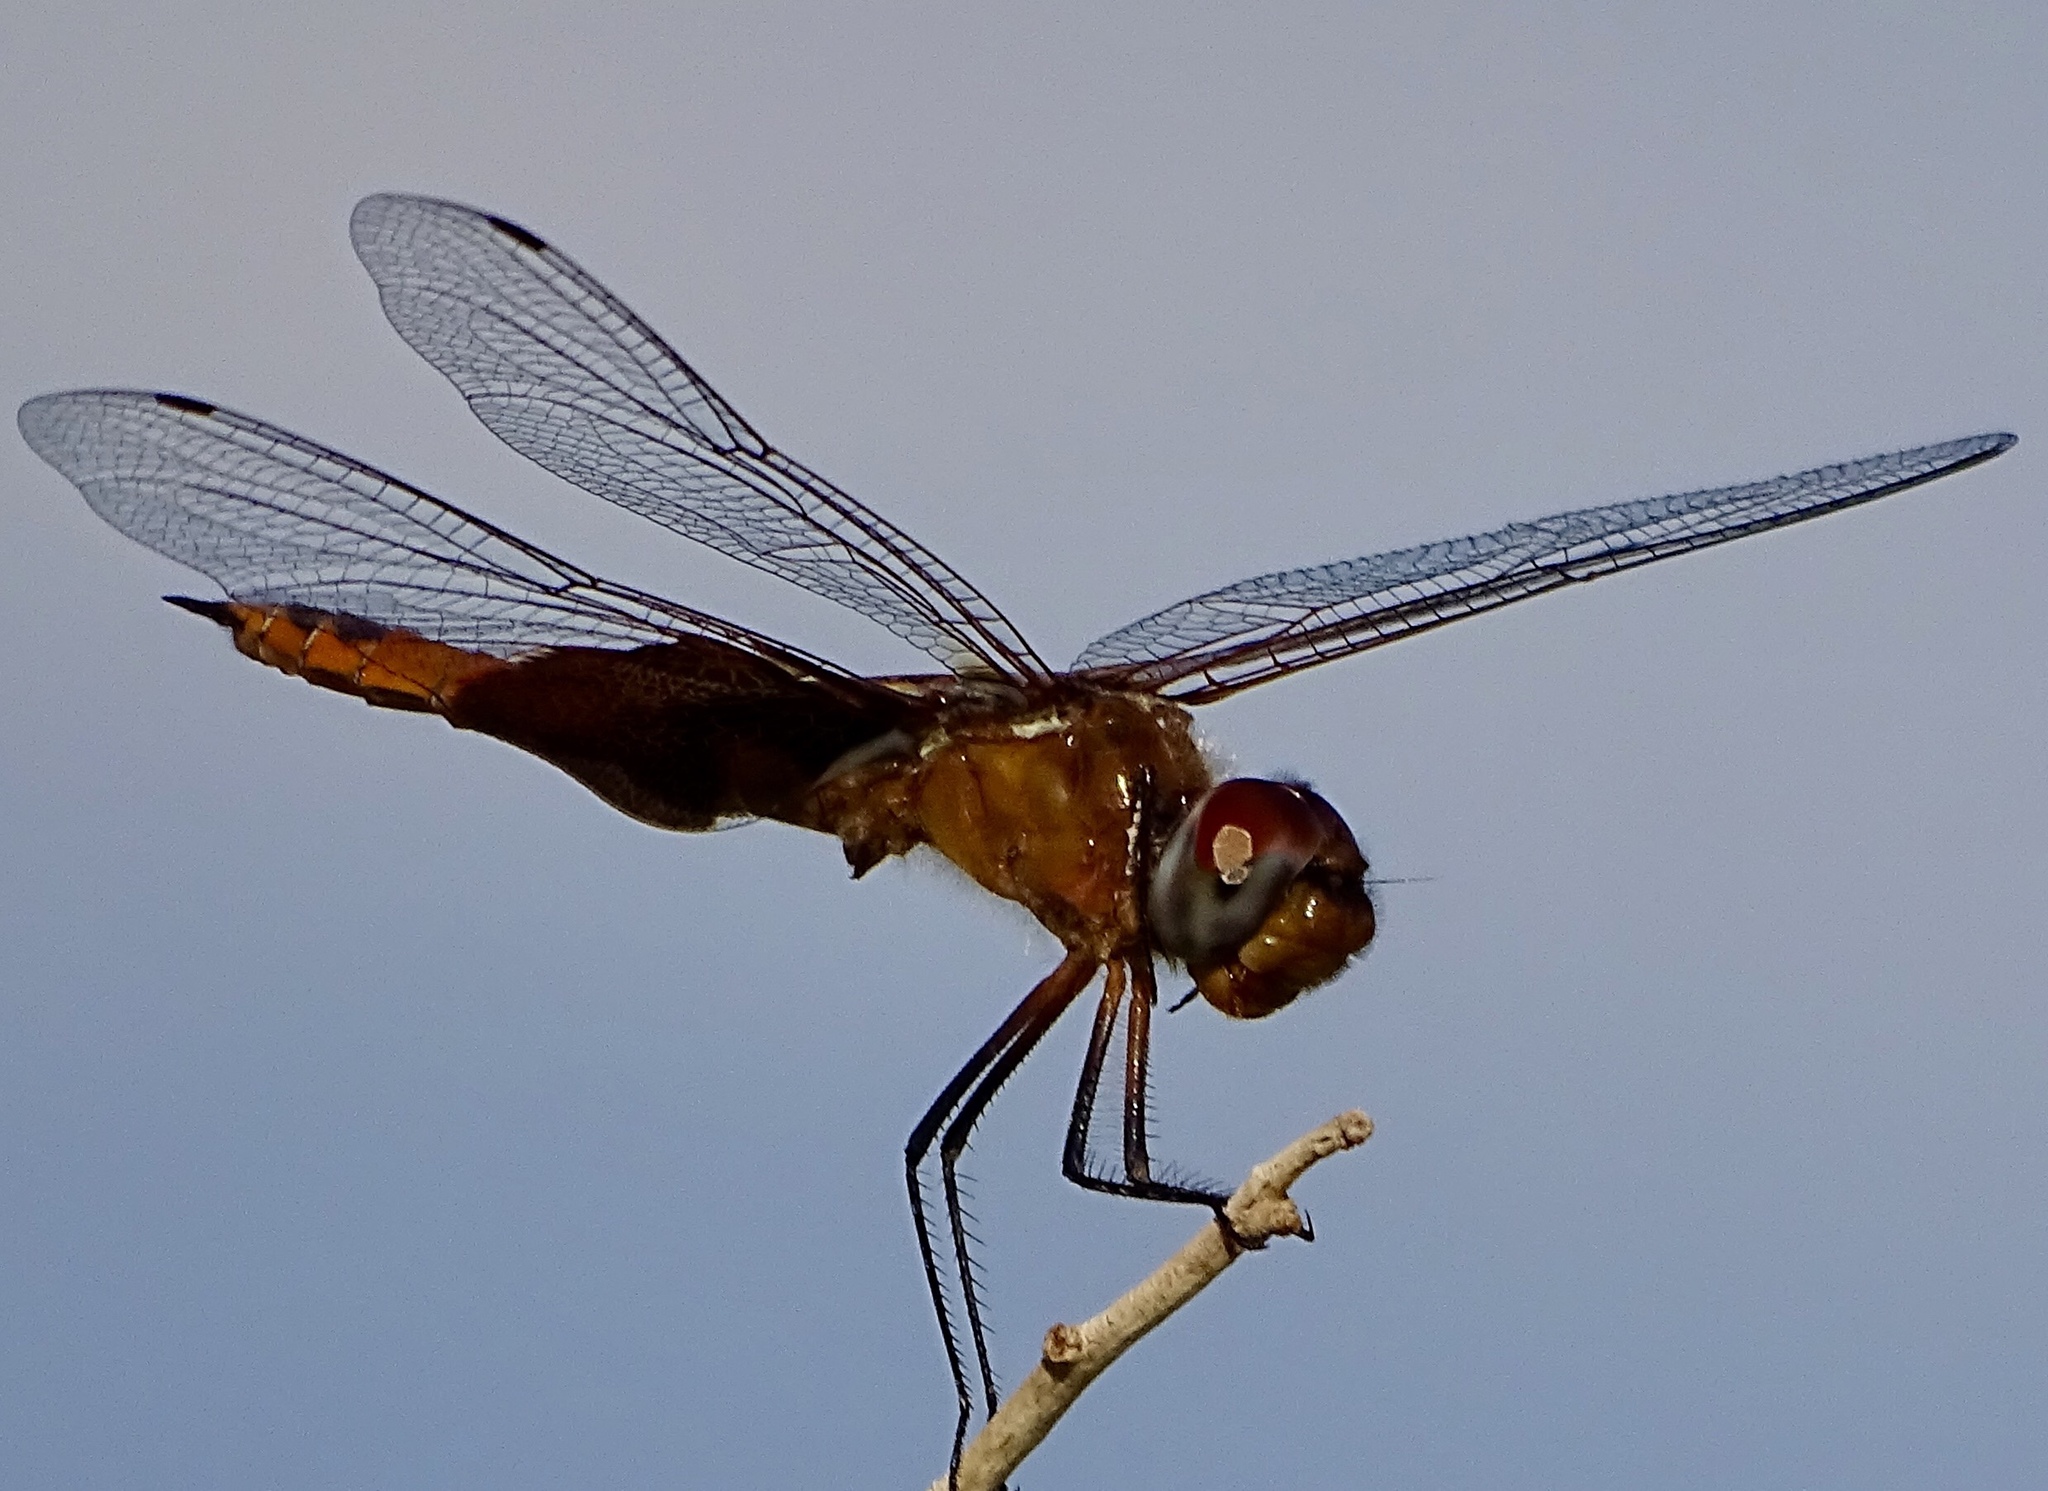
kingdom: Animalia
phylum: Arthropoda
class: Insecta
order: Odonata
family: Libellulidae
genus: Tramea
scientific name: Tramea onusta
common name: Red saddlebags
